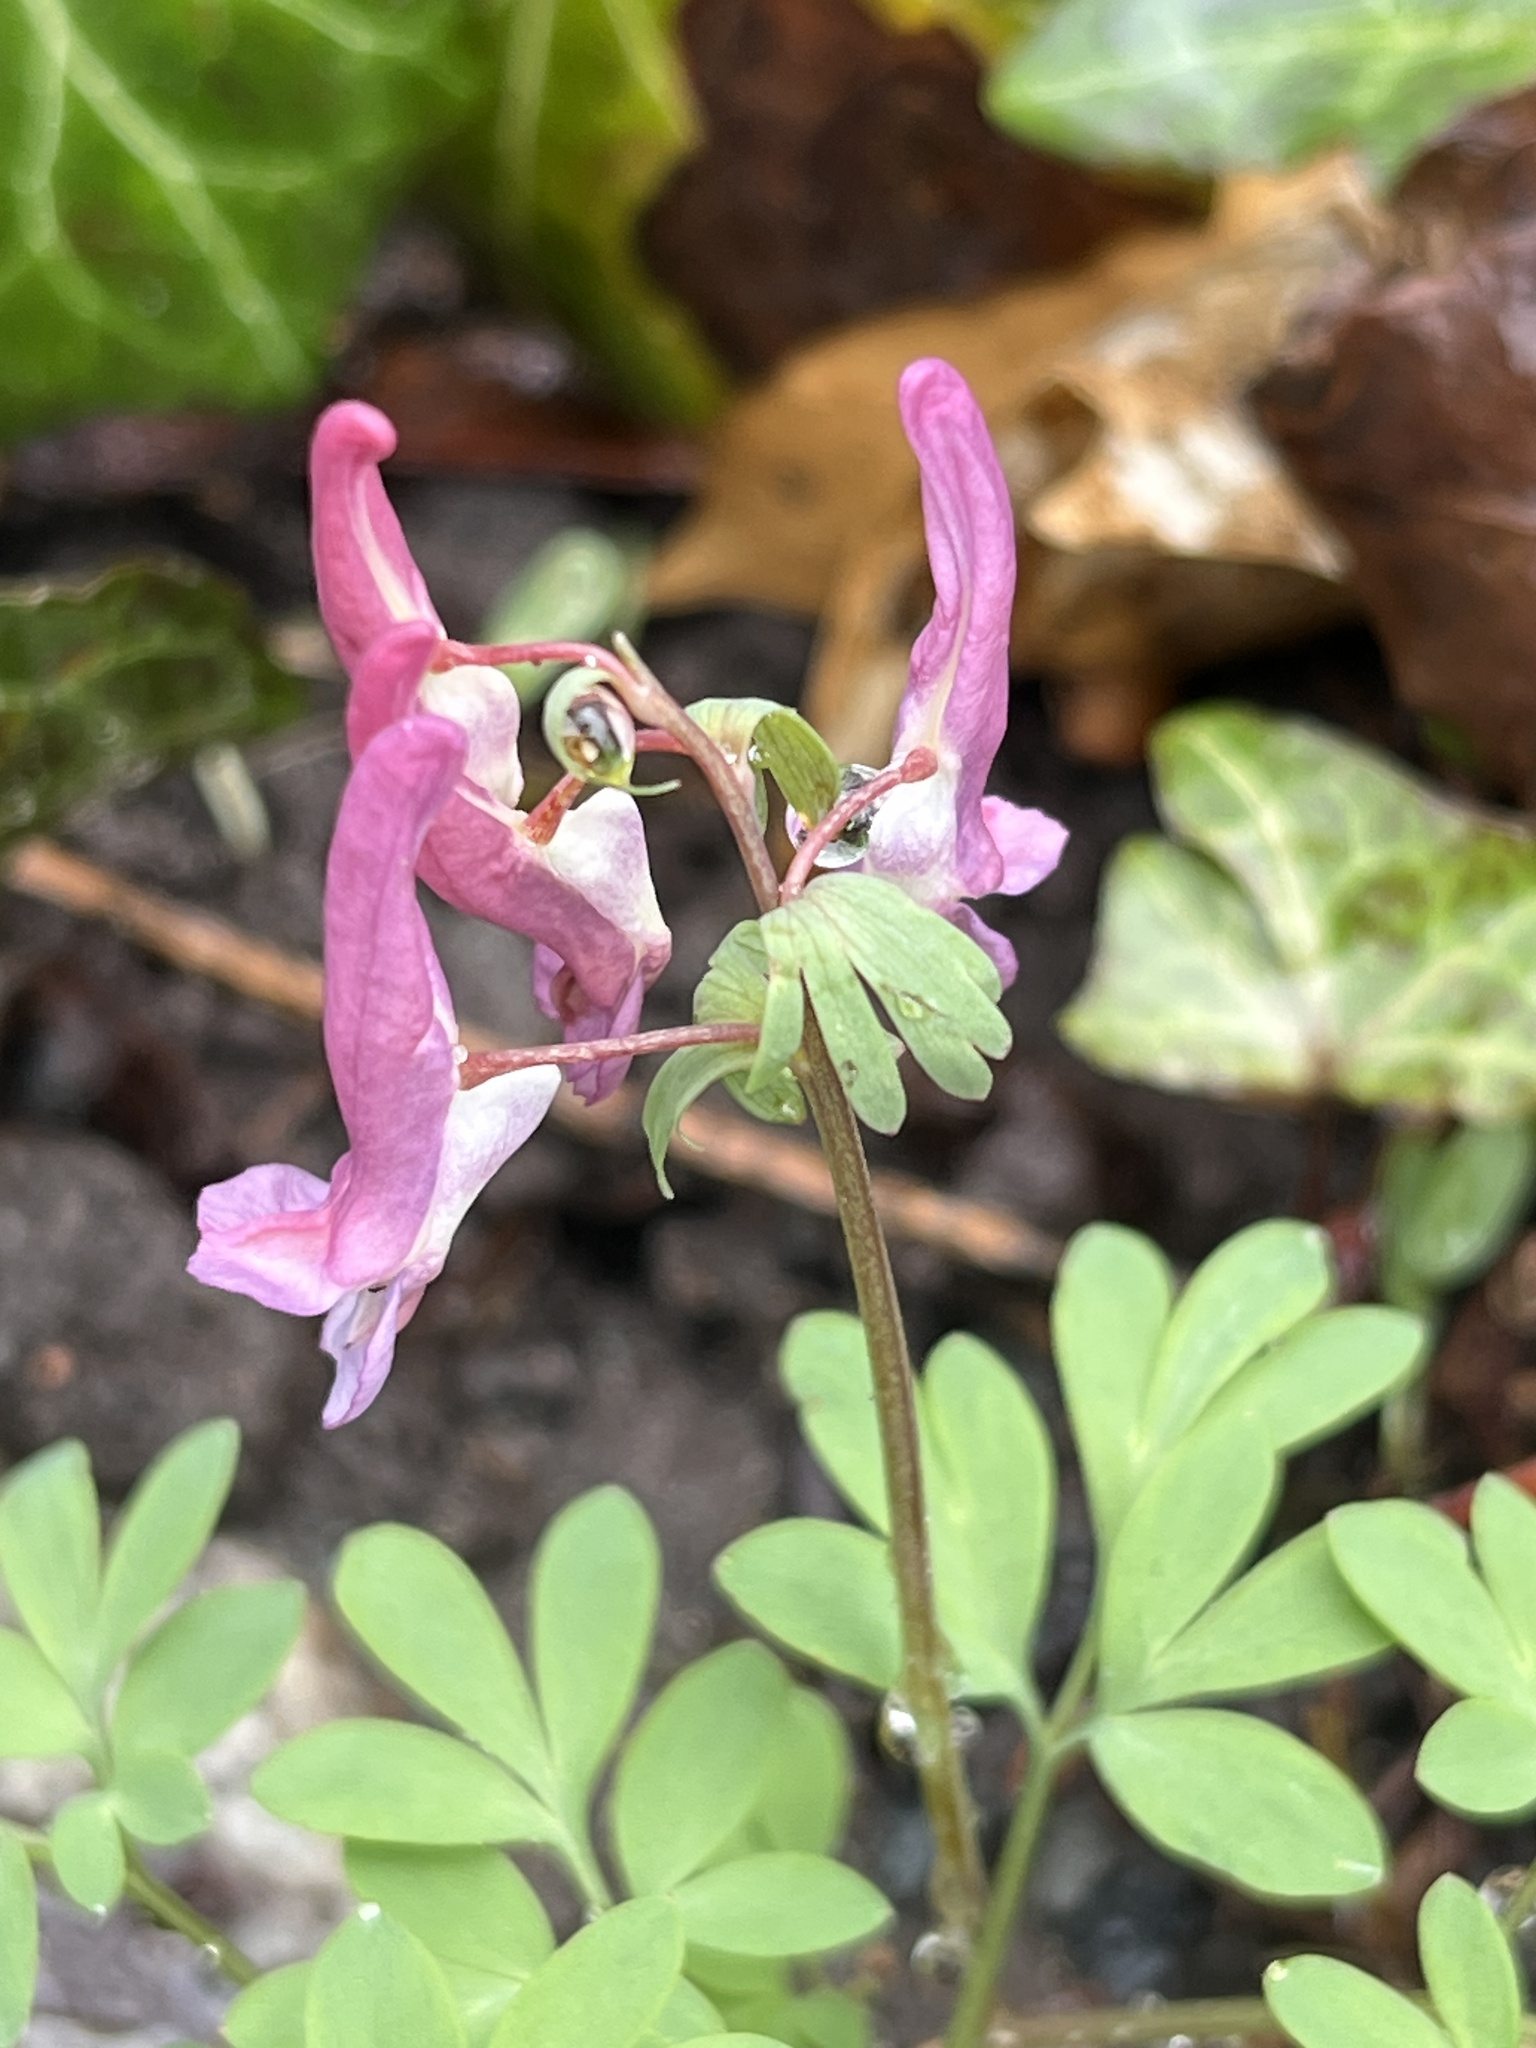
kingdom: Plantae
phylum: Tracheophyta
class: Magnoliopsida
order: Ranunculales
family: Papaveraceae
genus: Corydalis
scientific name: Corydalis solida
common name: Bird-in-a-bush
